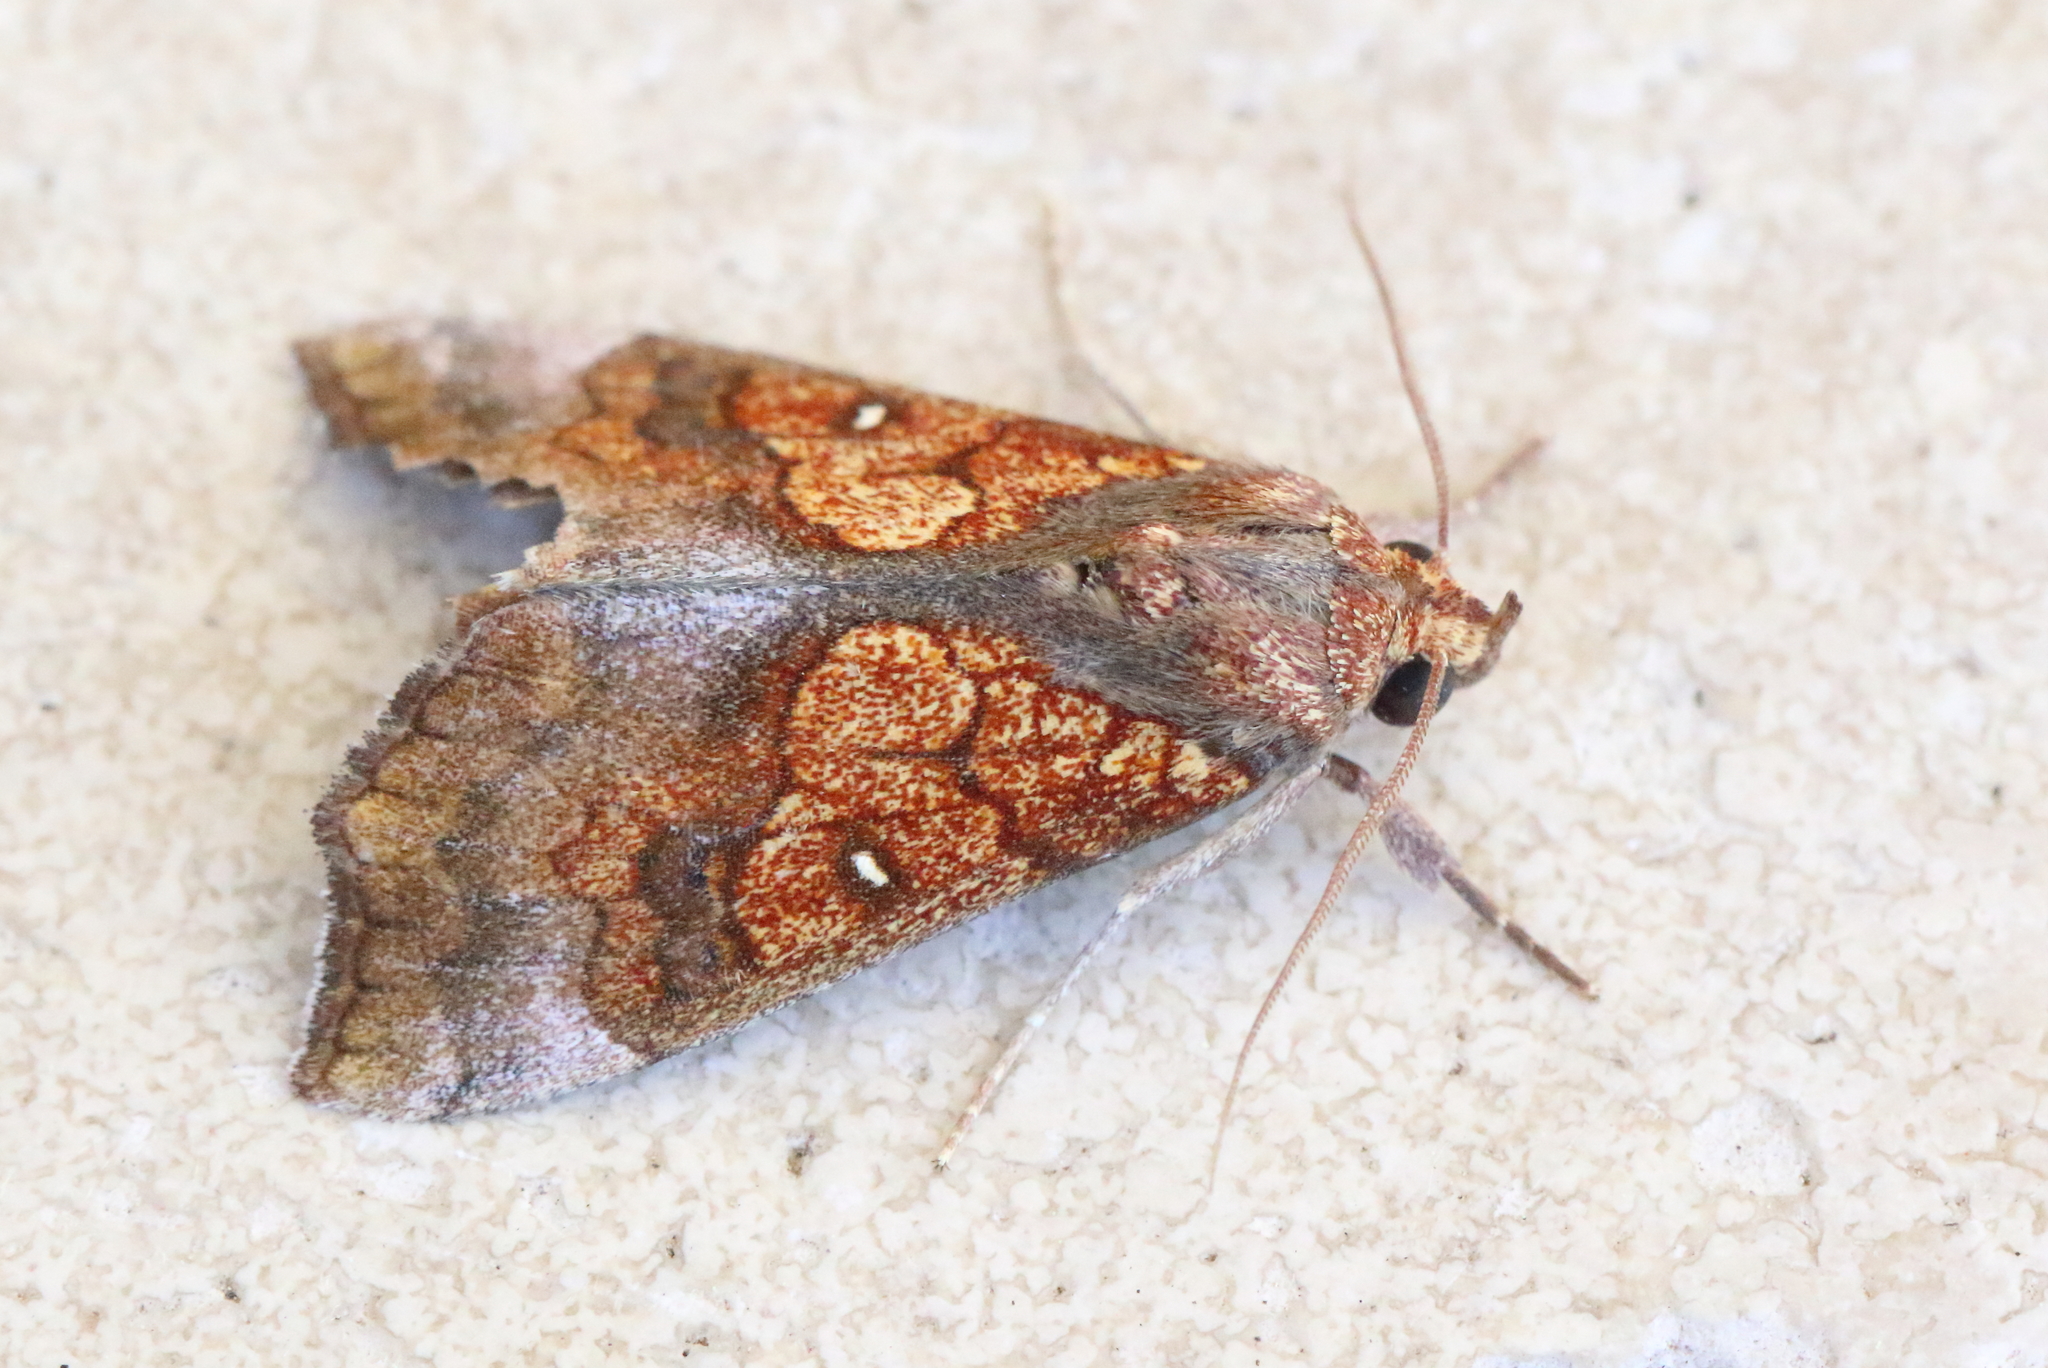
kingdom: Animalia
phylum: Arthropoda
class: Insecta
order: Lepidoptera
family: Erebidae
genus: Anomis
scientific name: Anomis flava
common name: Moth
